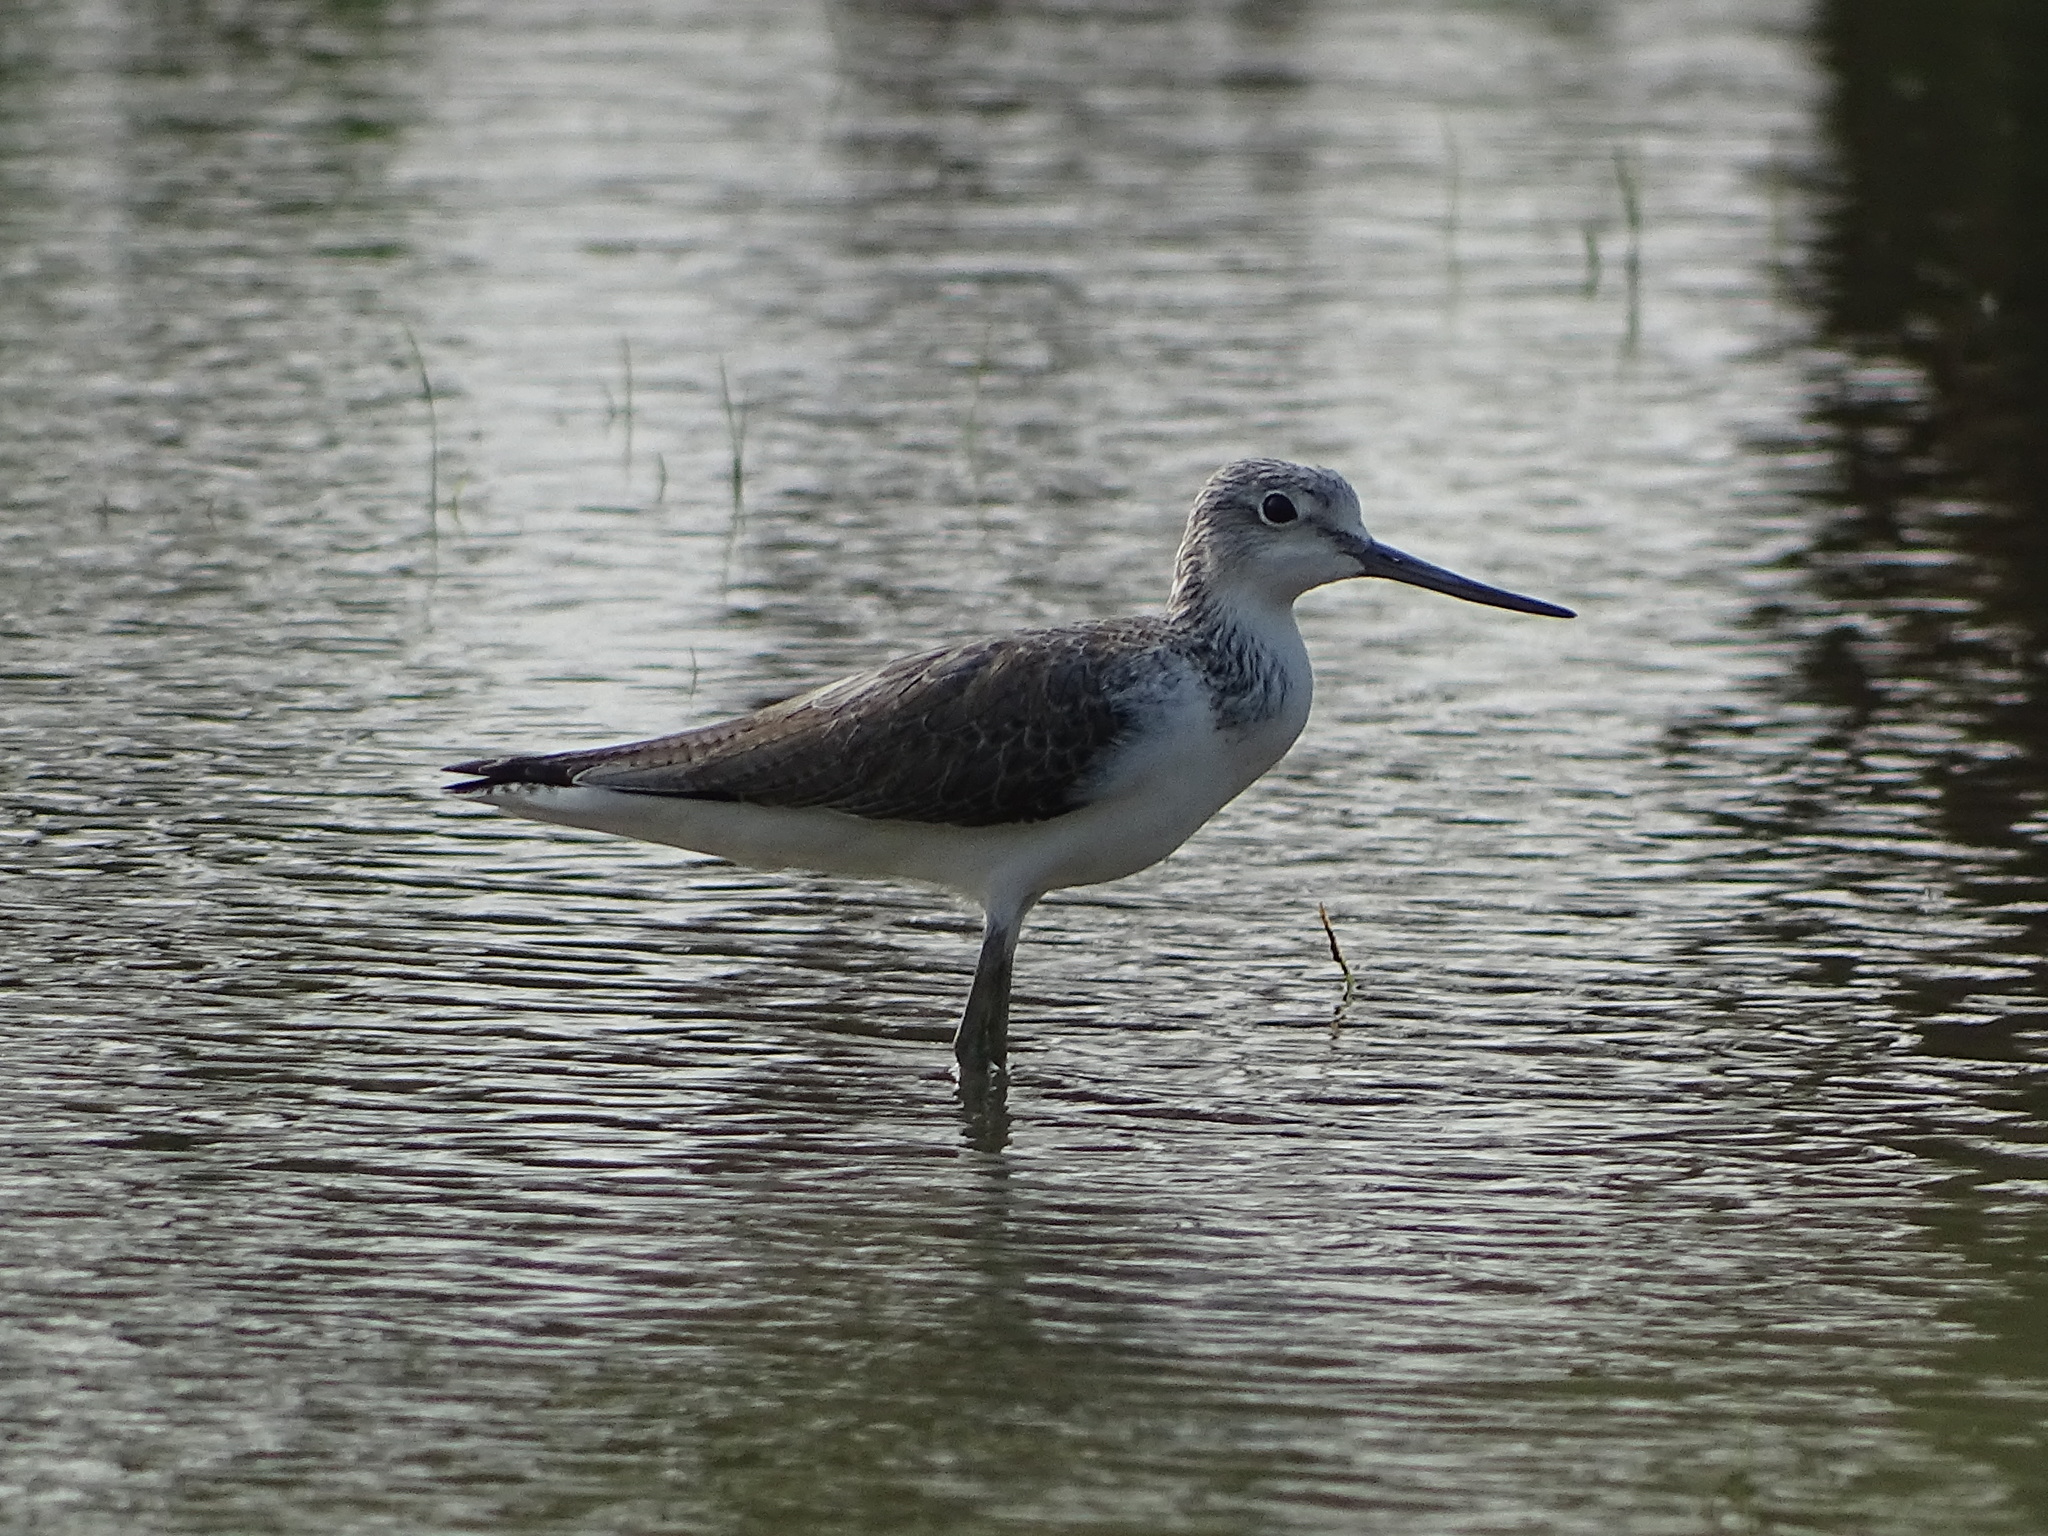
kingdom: Animalia
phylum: Chordata
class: Aves
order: Charadriiformes
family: Scolopacidae
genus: Tringa
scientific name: Tringa nebularia
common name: Common greenshank
